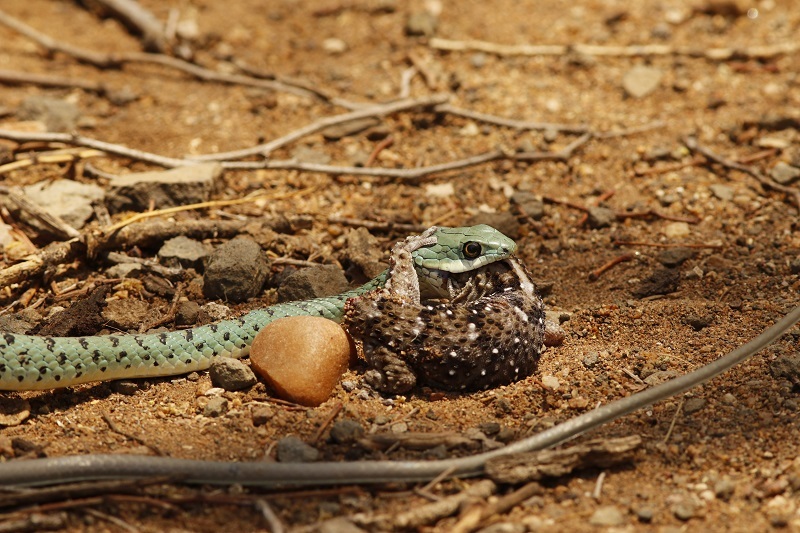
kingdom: Animalia
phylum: Chordata
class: Squamata
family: Gekkonidae
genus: Chondrodactylus
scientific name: Chondrodactylus turneri
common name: Turner’s gecko
